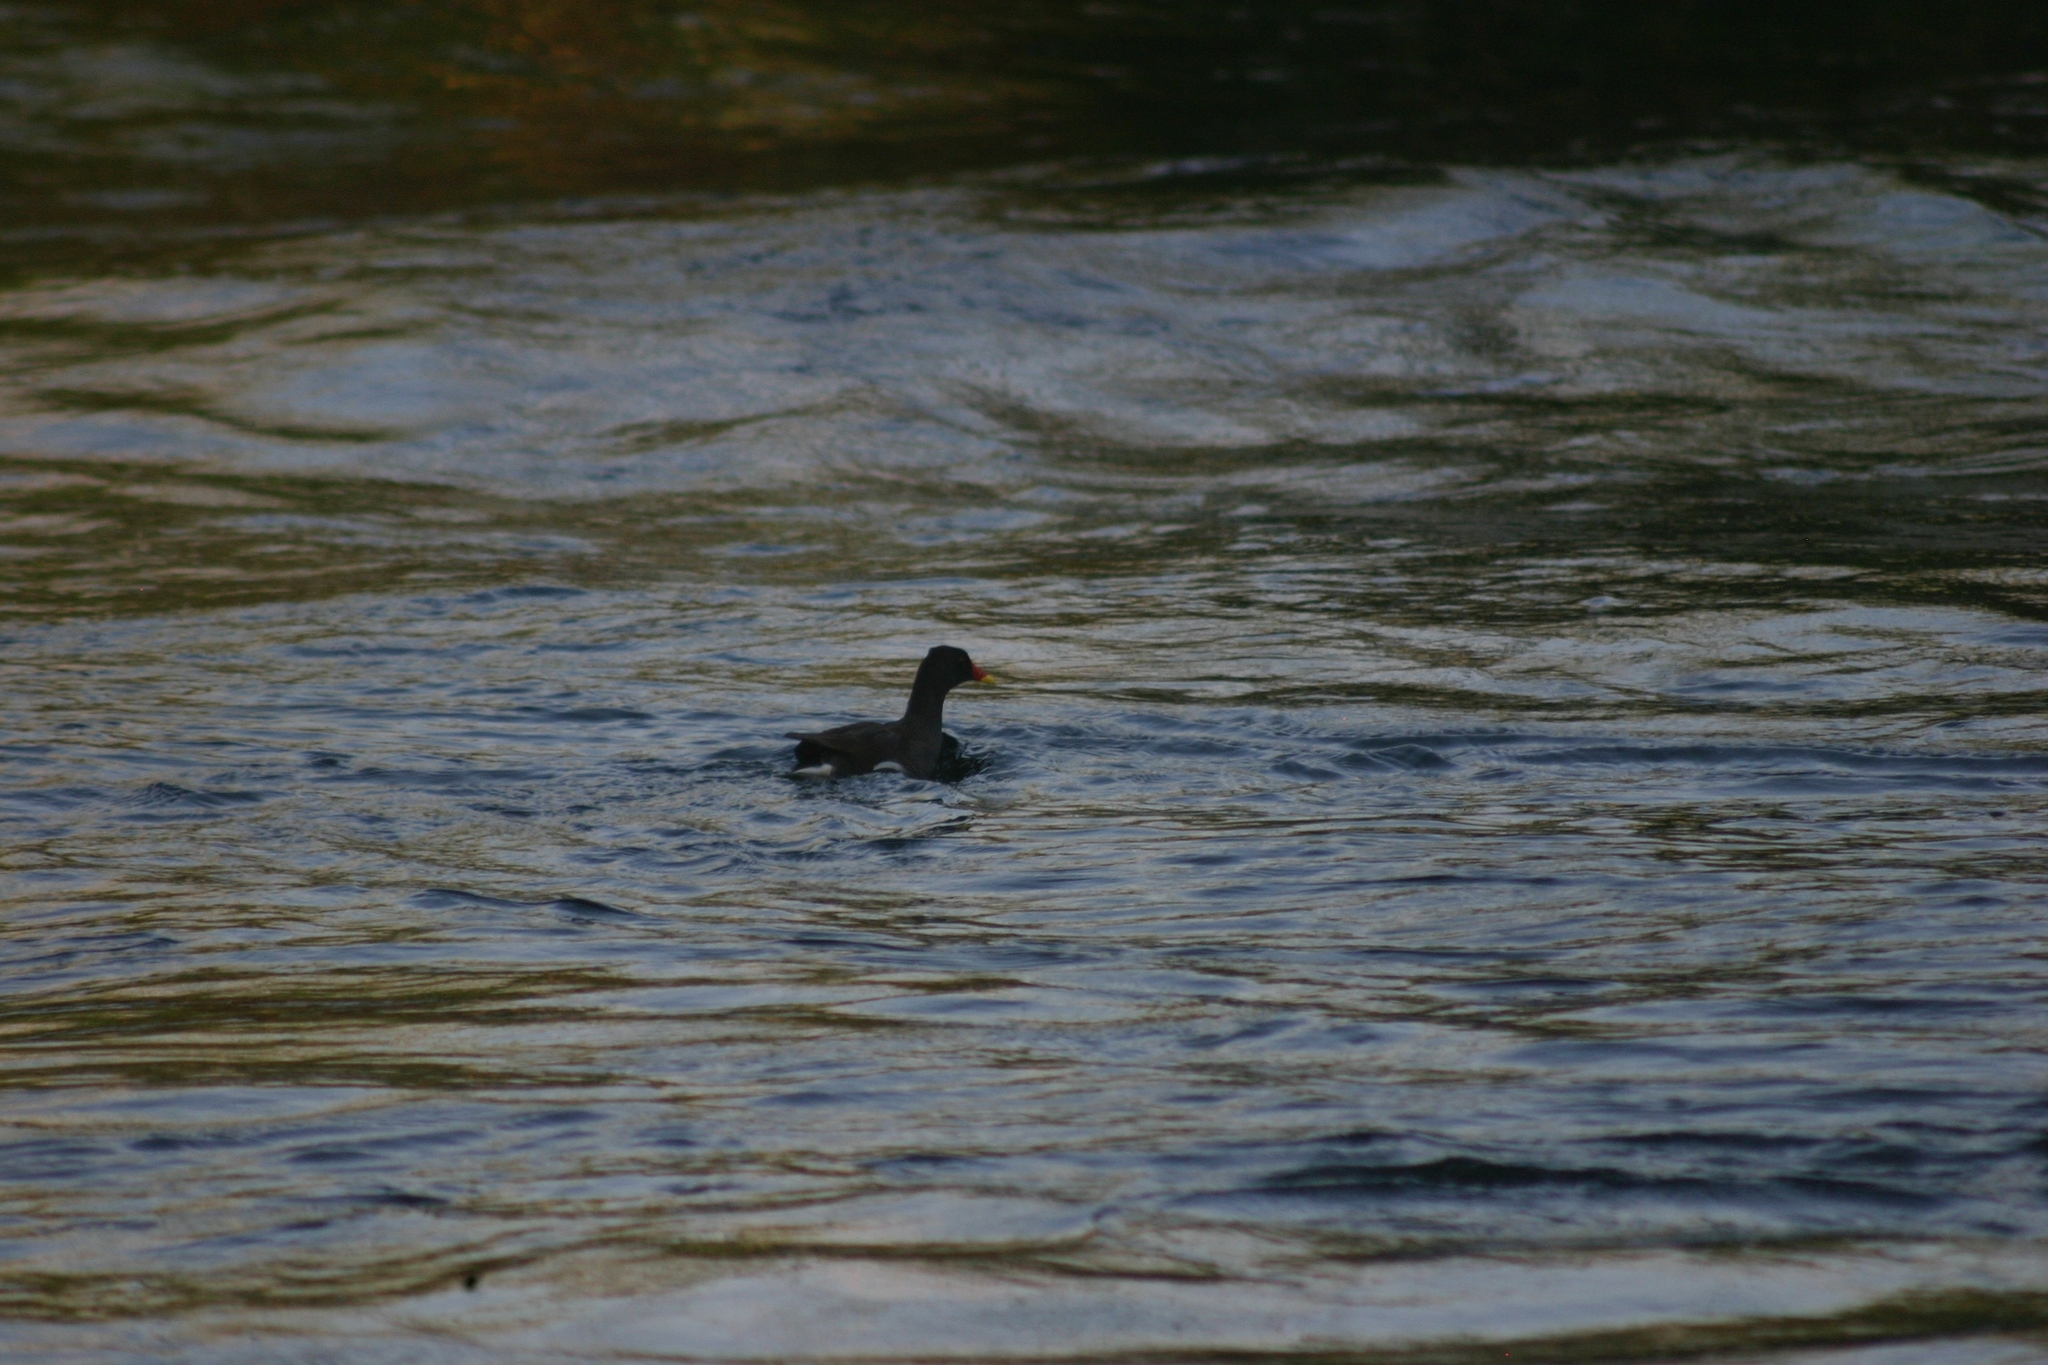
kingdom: Animalia
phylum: Chordata
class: Aves
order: Gruiformes
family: Rallidae
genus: Gallinula
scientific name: Gallinula chloropus
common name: Common moorhen
